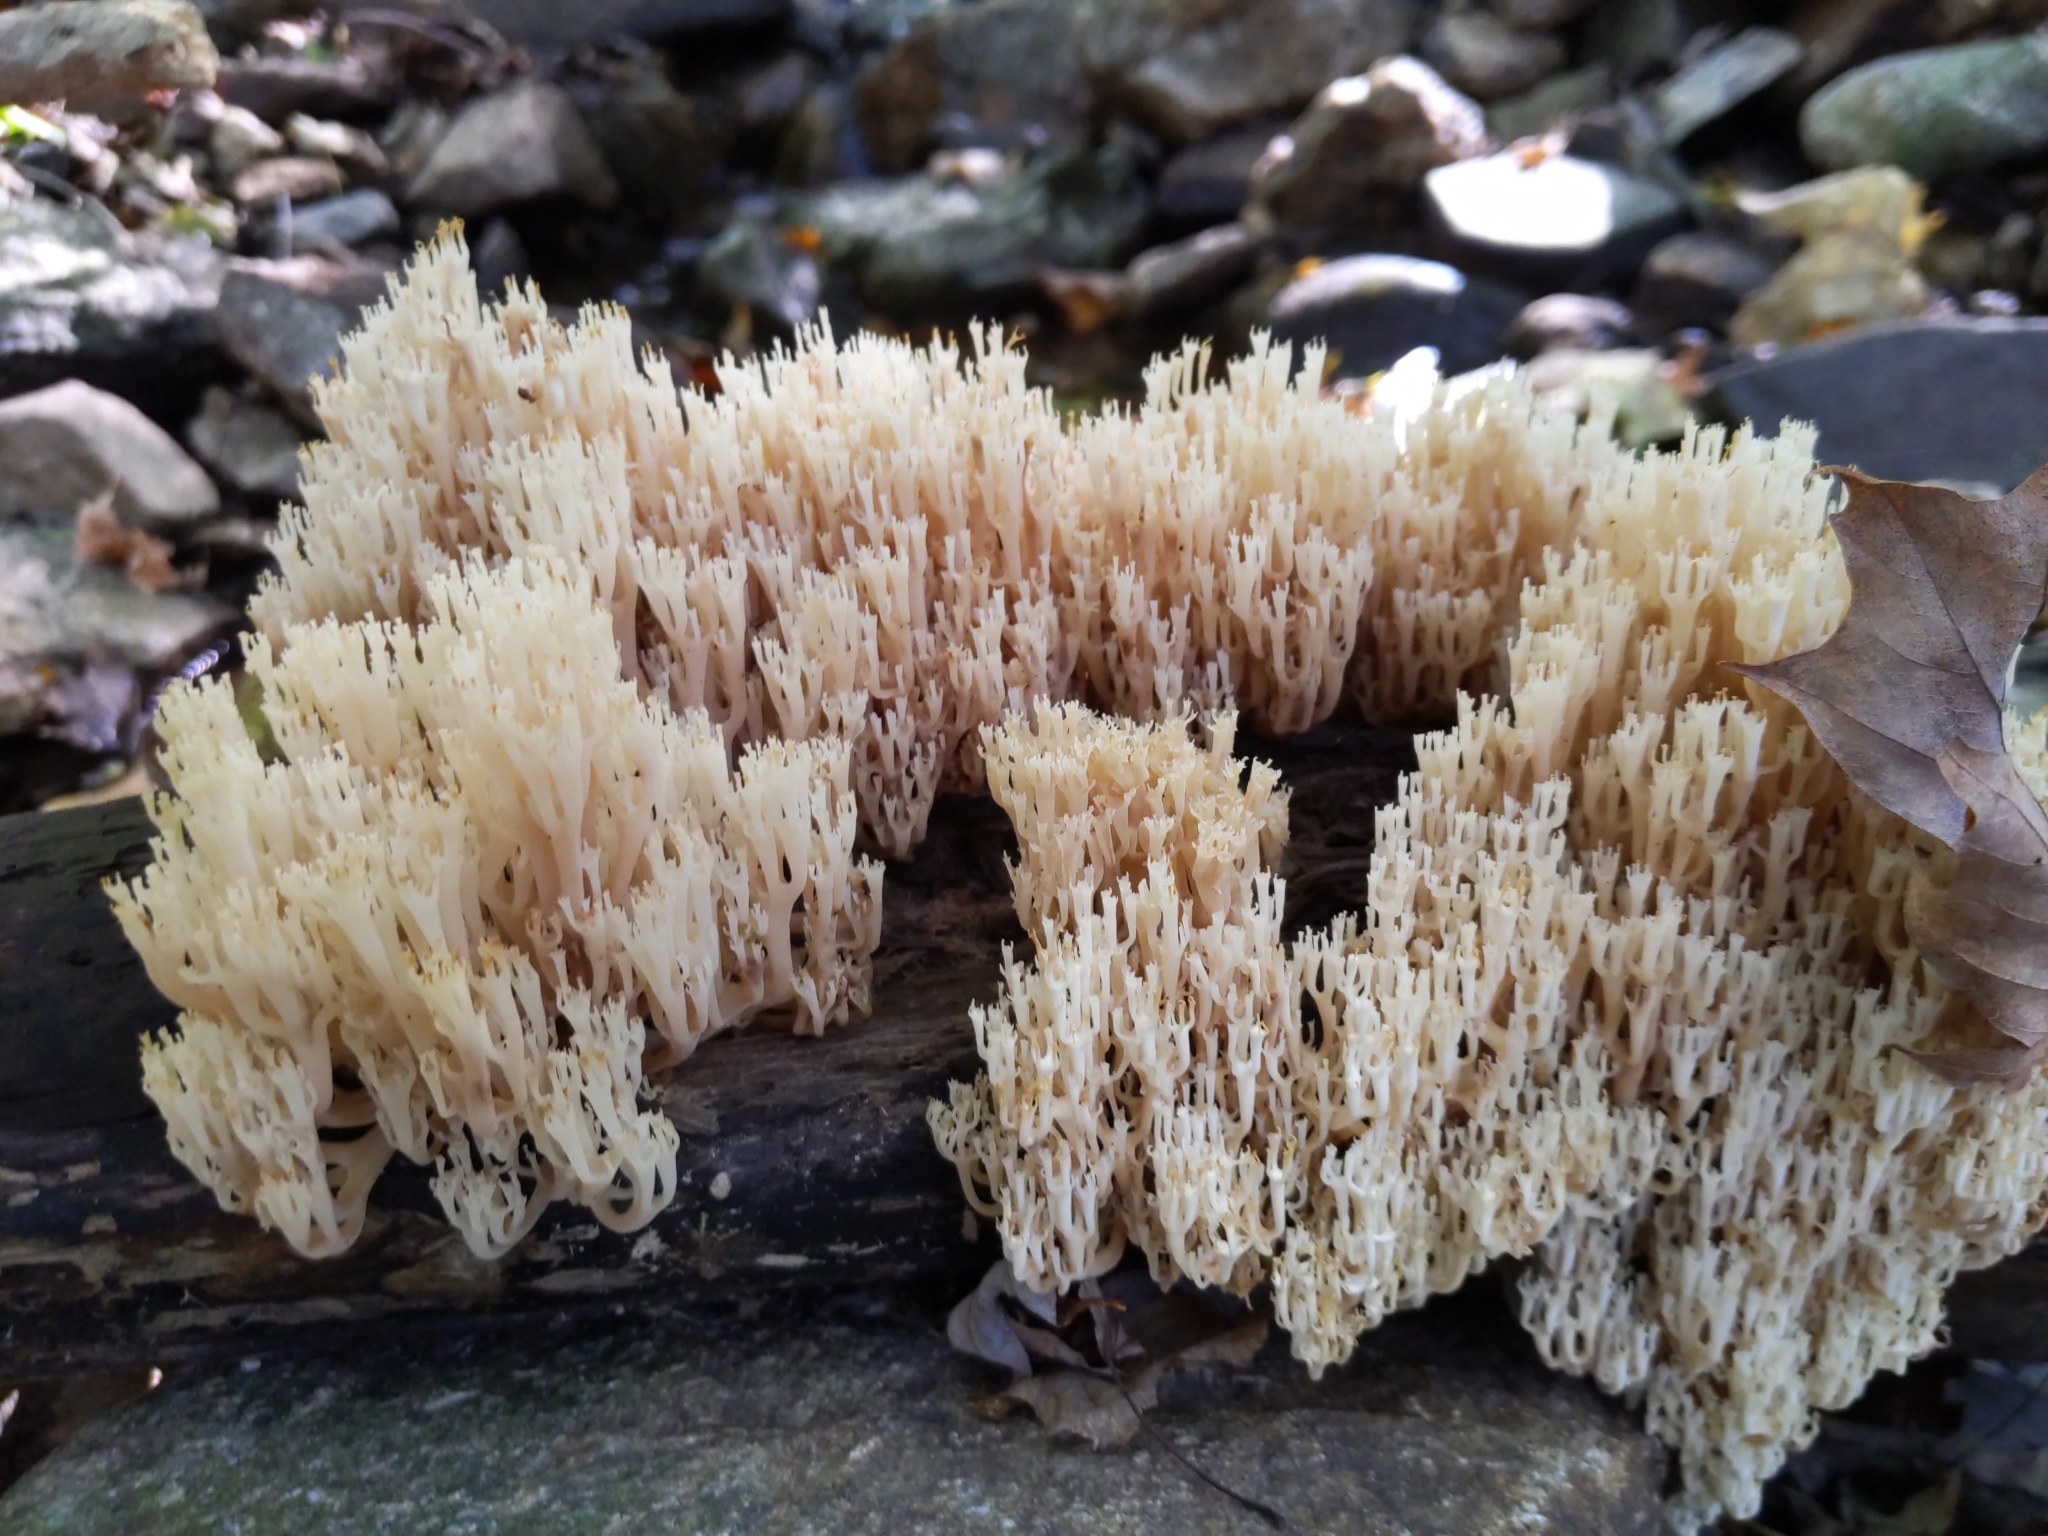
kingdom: Fungi
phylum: Basidiomycota
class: Agaricomycetes
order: Russulales
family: Auriscalpiaceae
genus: Artomyces
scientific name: Artomyces pyxidatus
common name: Crown-tipped coral fungus
